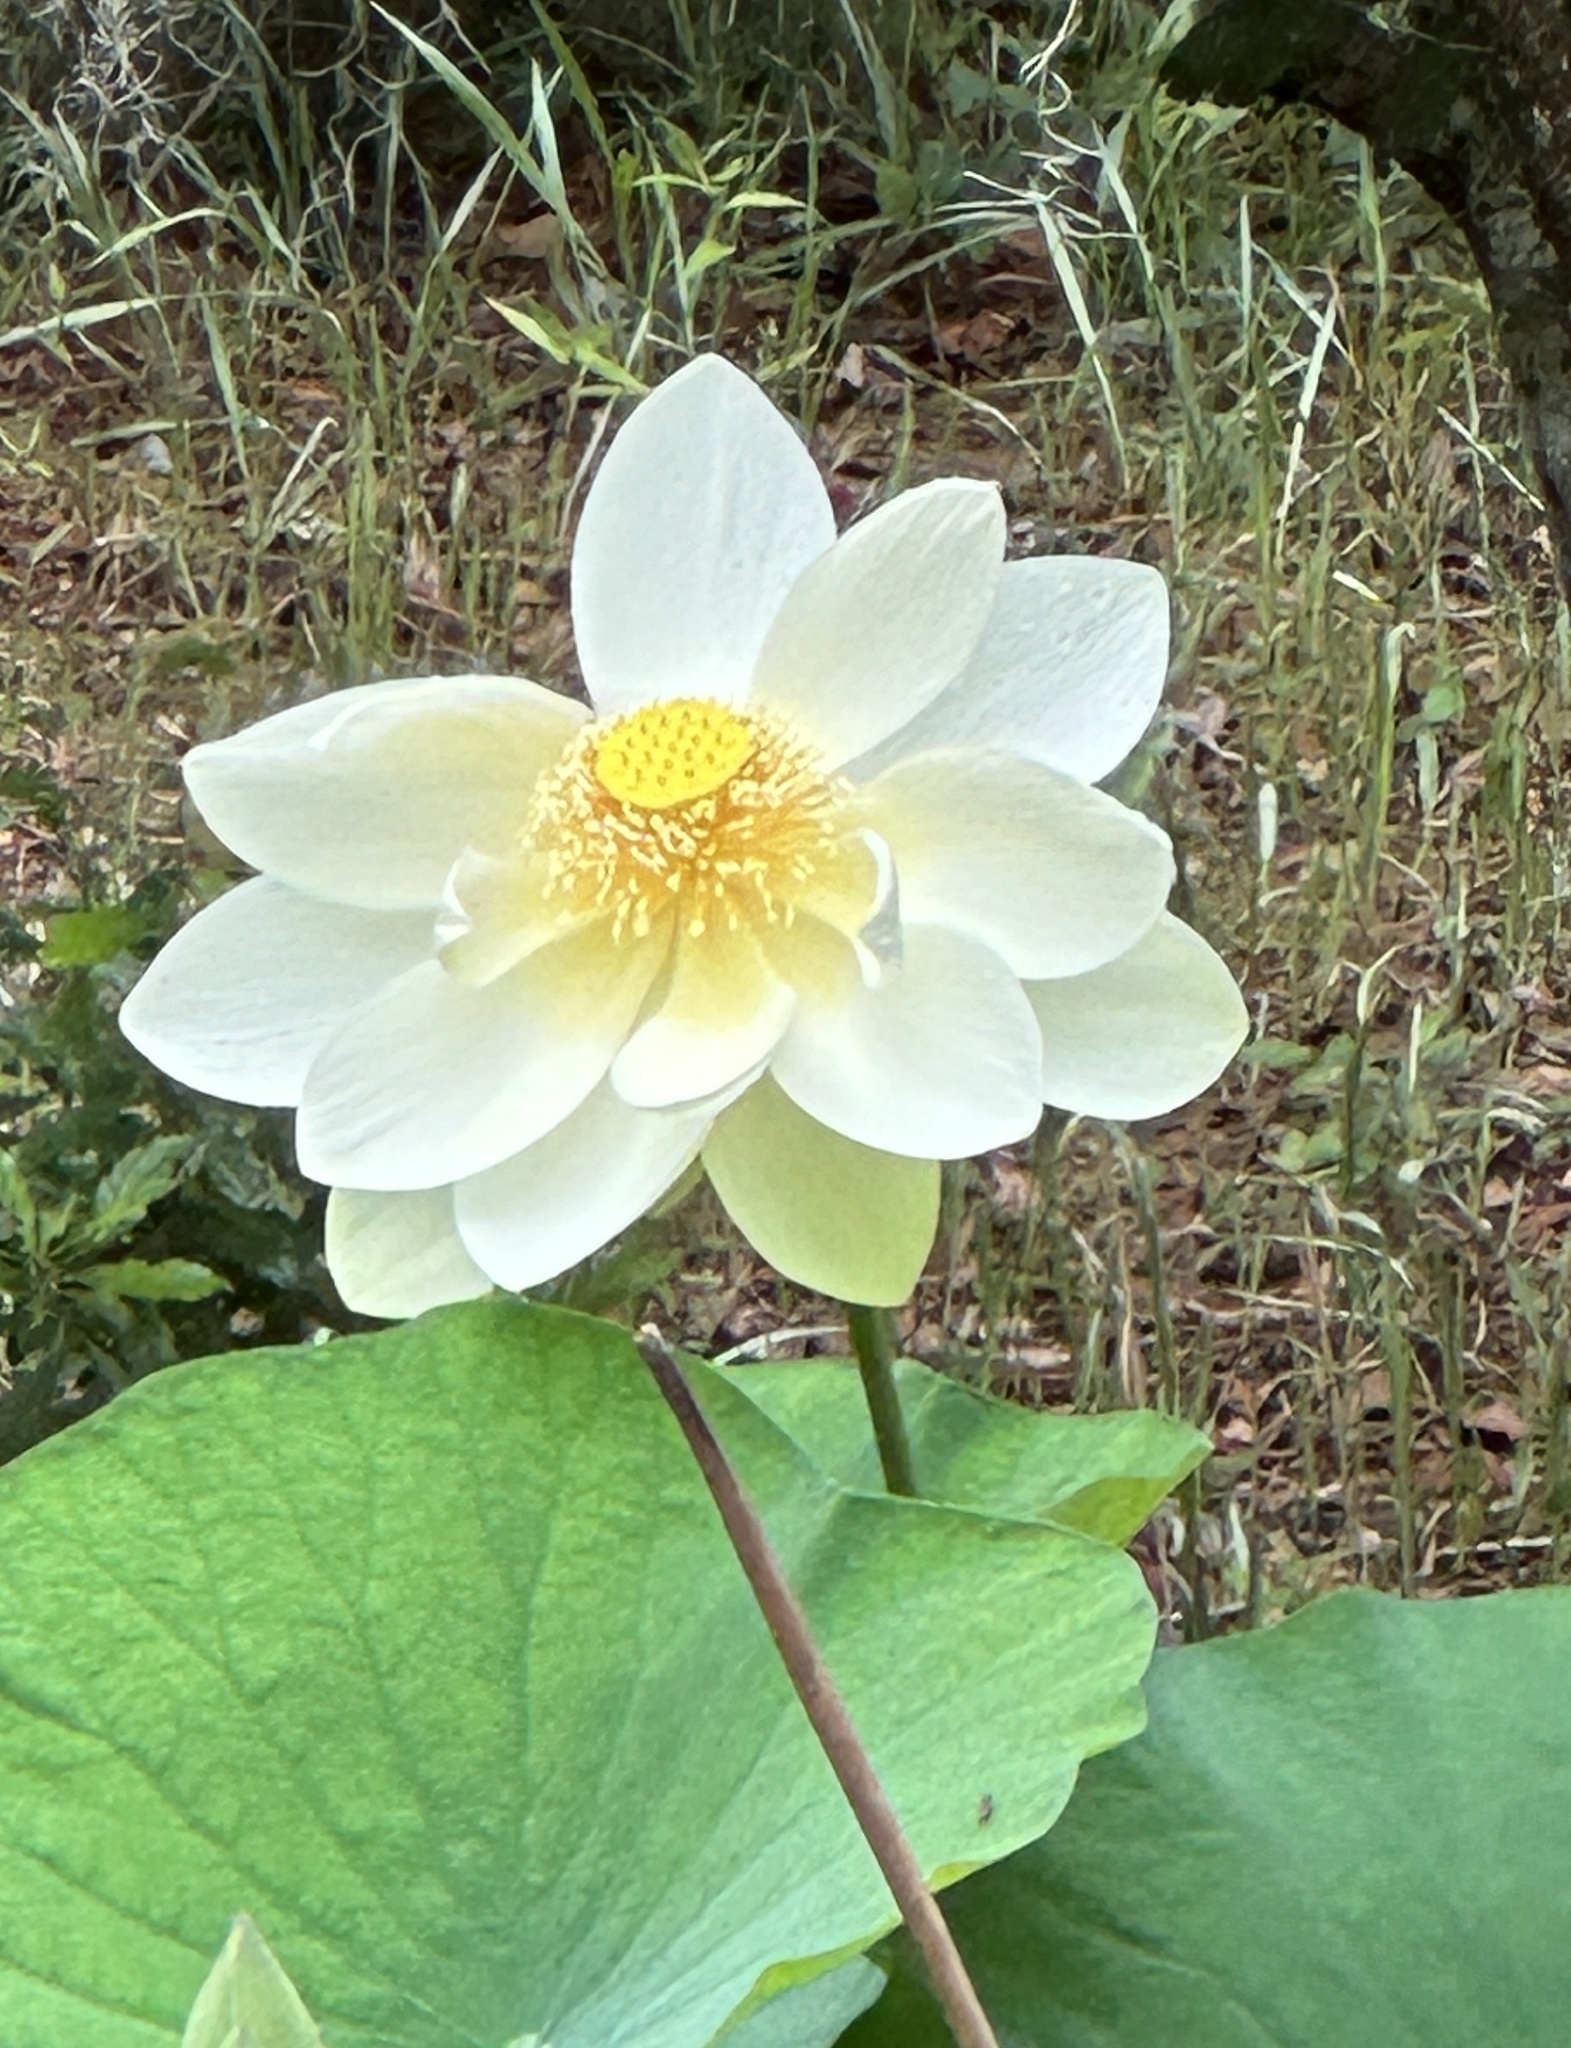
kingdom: Plantae
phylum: Tracheophyta
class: Magnoliopsida
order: Proteales
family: Nelumbonaceae
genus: Nelumbo
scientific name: Nelumbo lutea
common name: American lotus
